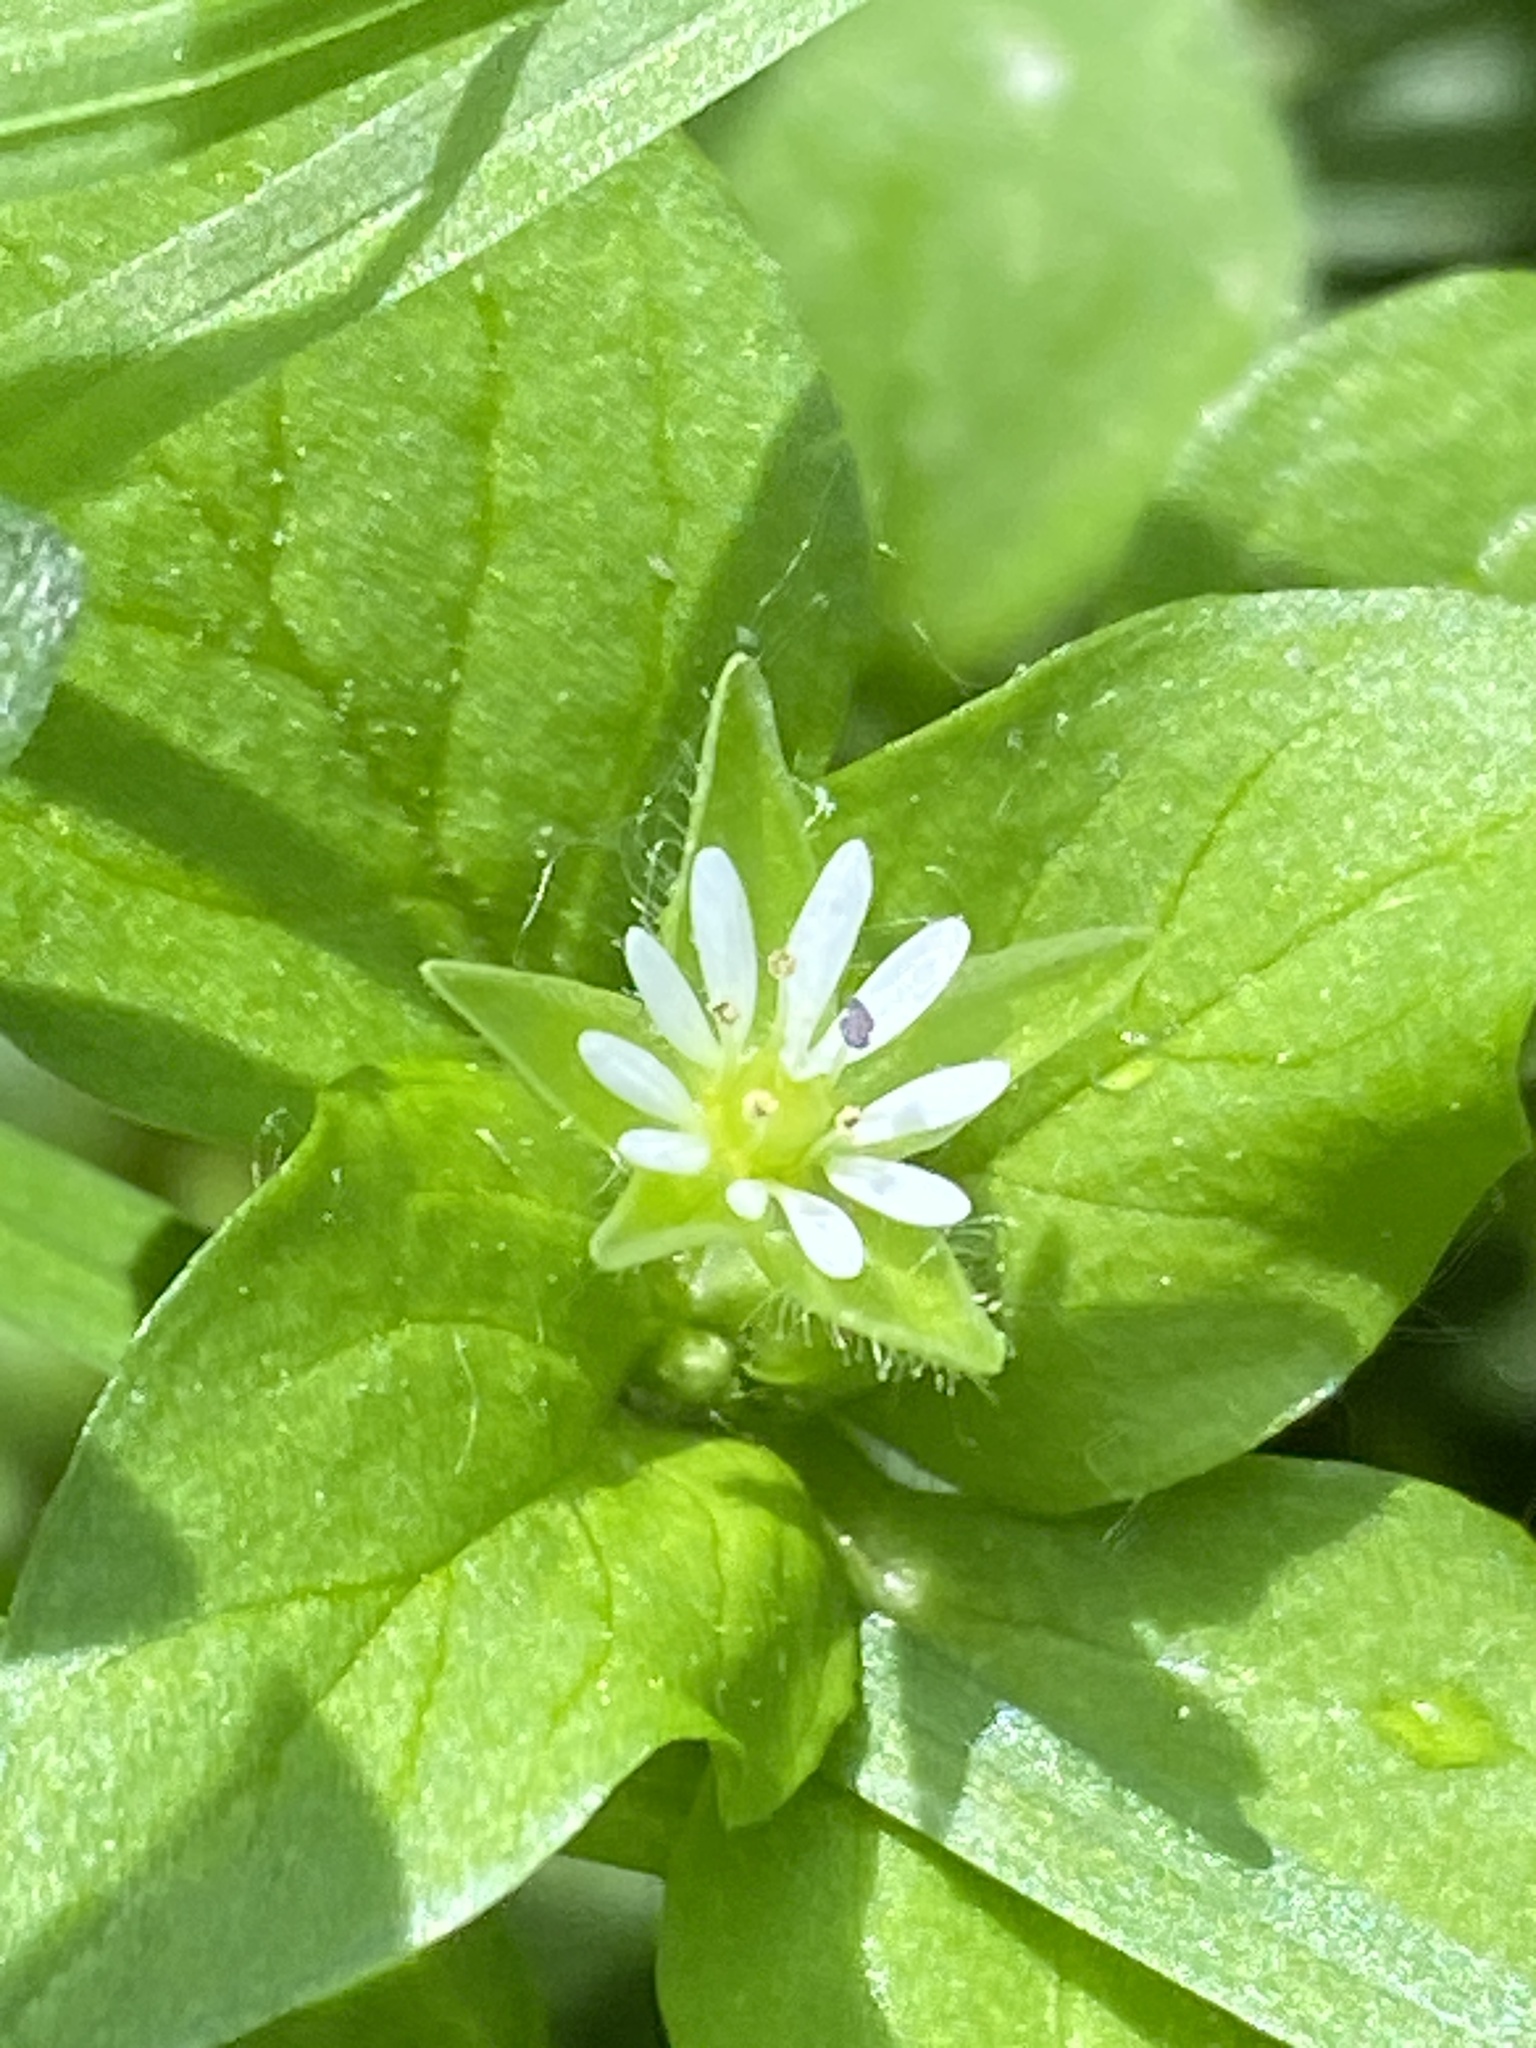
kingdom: Plantae
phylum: Tracheophyta
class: Magnoliopsida
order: Caryophyllales
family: Caryophyllaceae
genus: Stellaria
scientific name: Stellaria media
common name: Common chickweed
